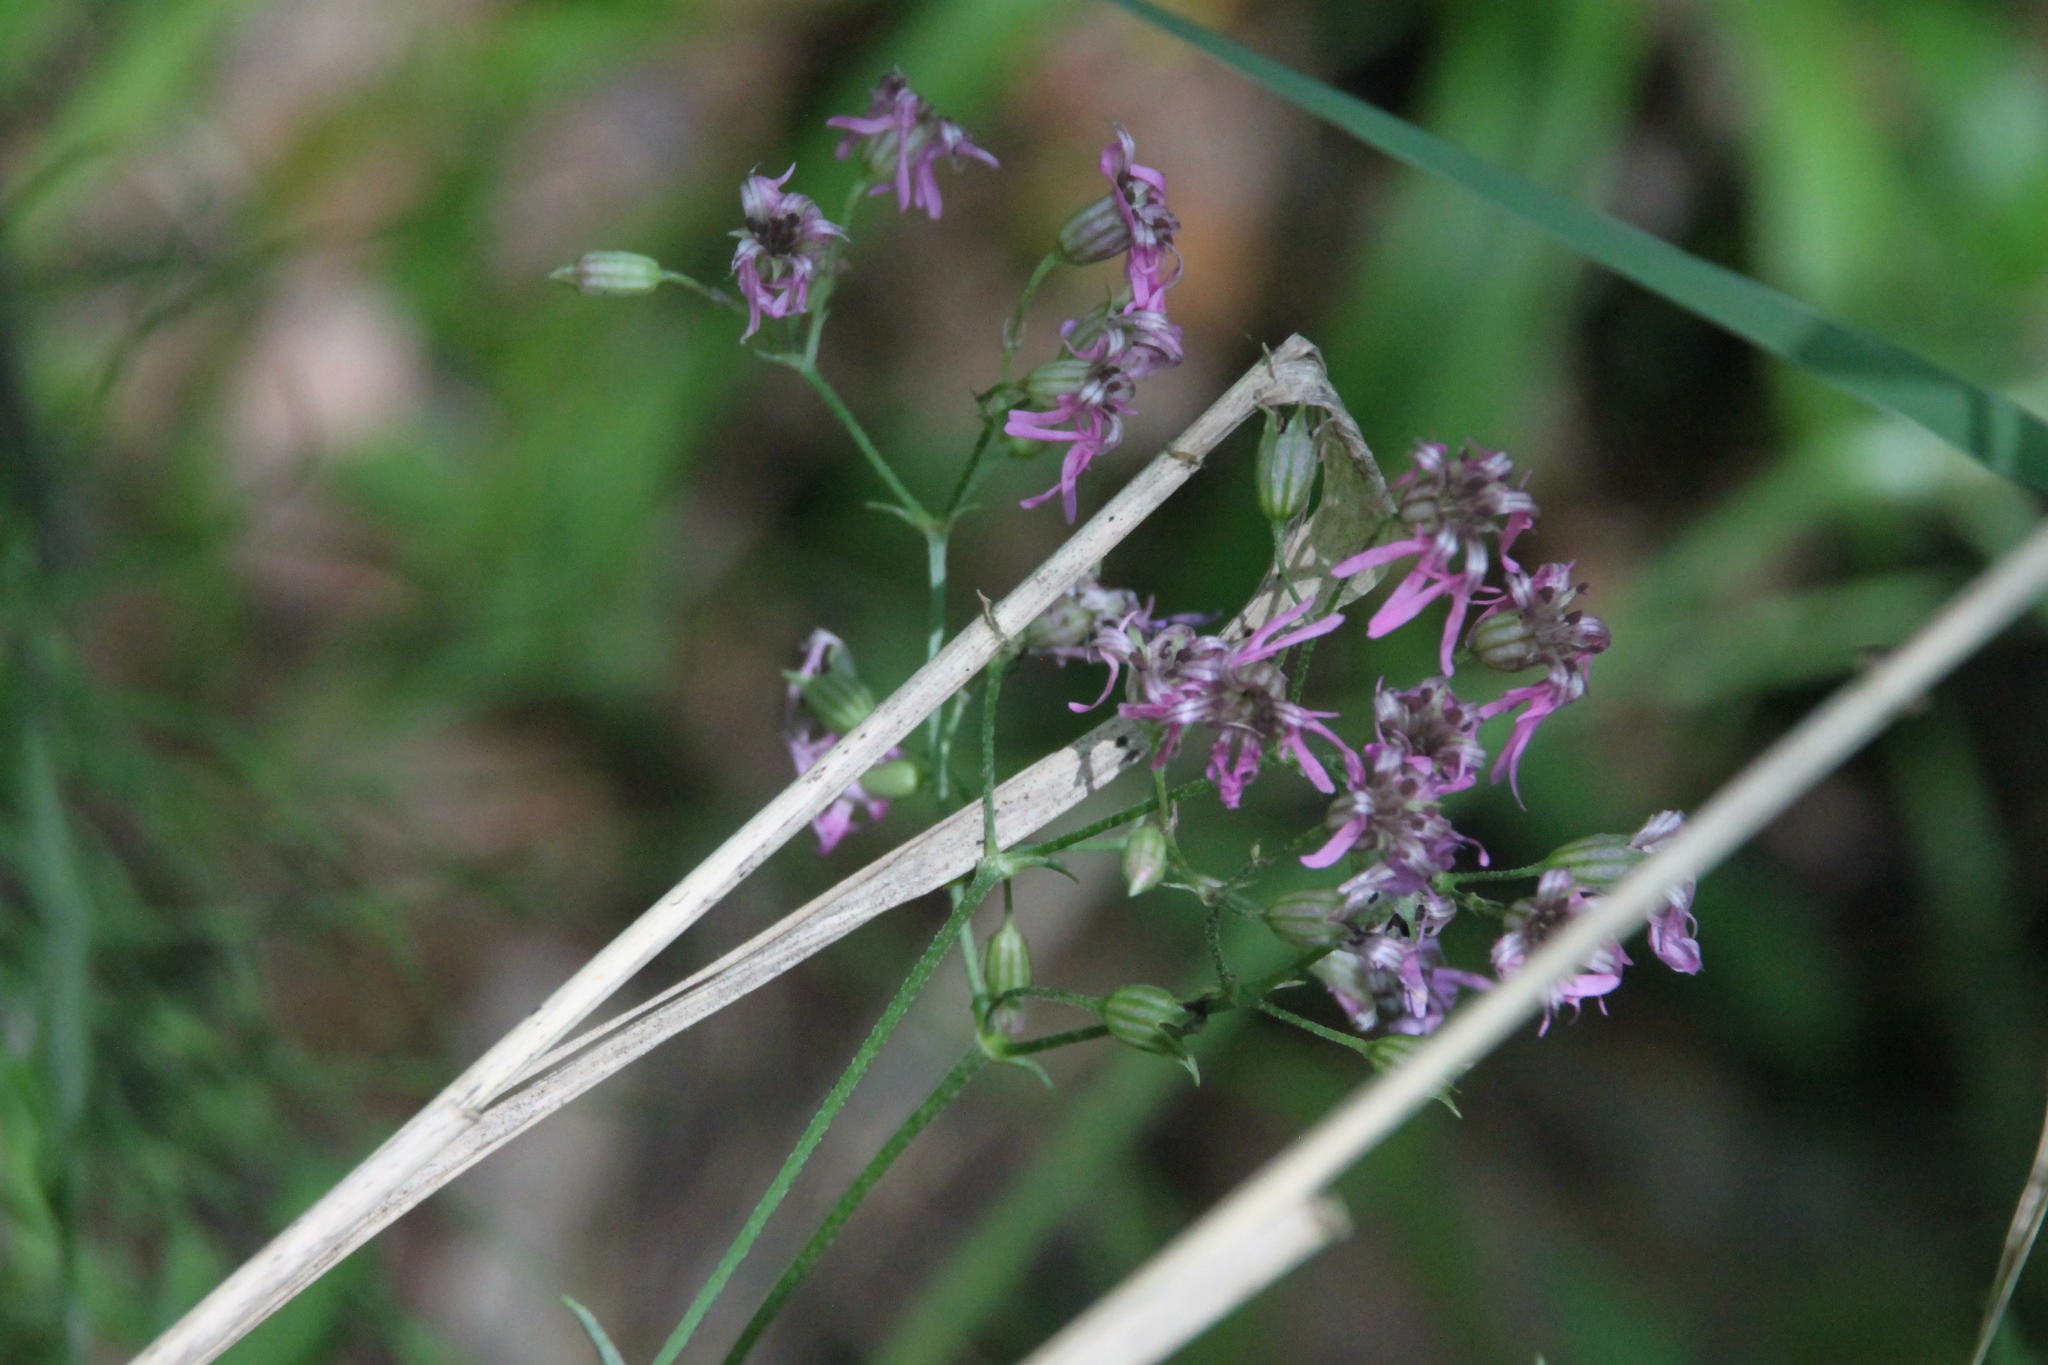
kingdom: Plantae
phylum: Tracheophyta
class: Magnoliopsida
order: Caryophyllales
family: Caryophyllaceae
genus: Silene
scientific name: Silene flos-cuculi
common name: Ragged-robin
